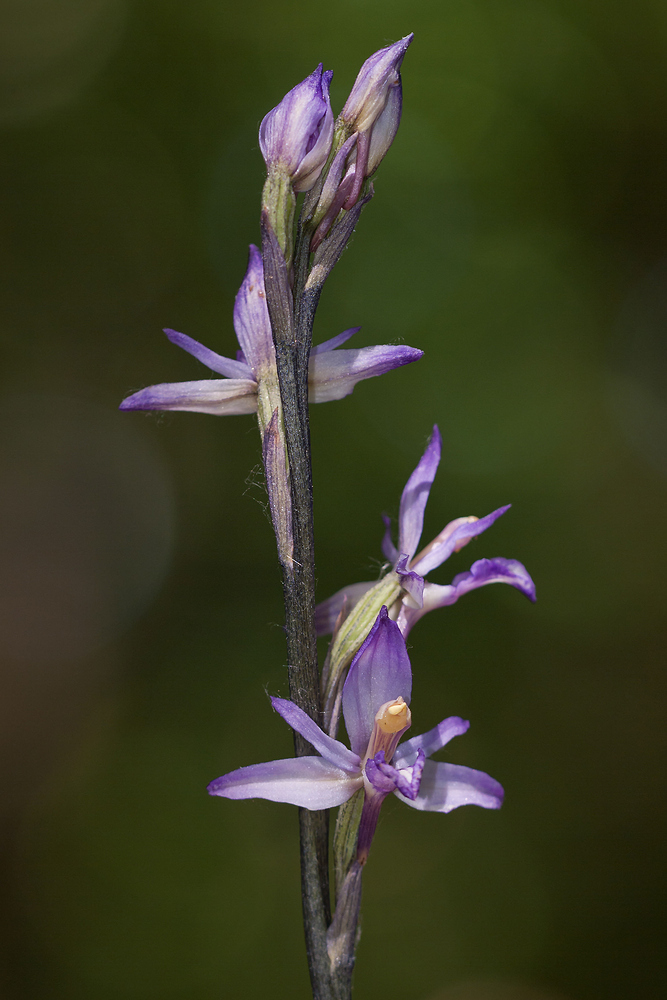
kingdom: Plantae
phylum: Tracheophyta
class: Liliopsida
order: Asparagales
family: Orchidaceae
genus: Limodorum
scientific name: Limodorum abortivum
